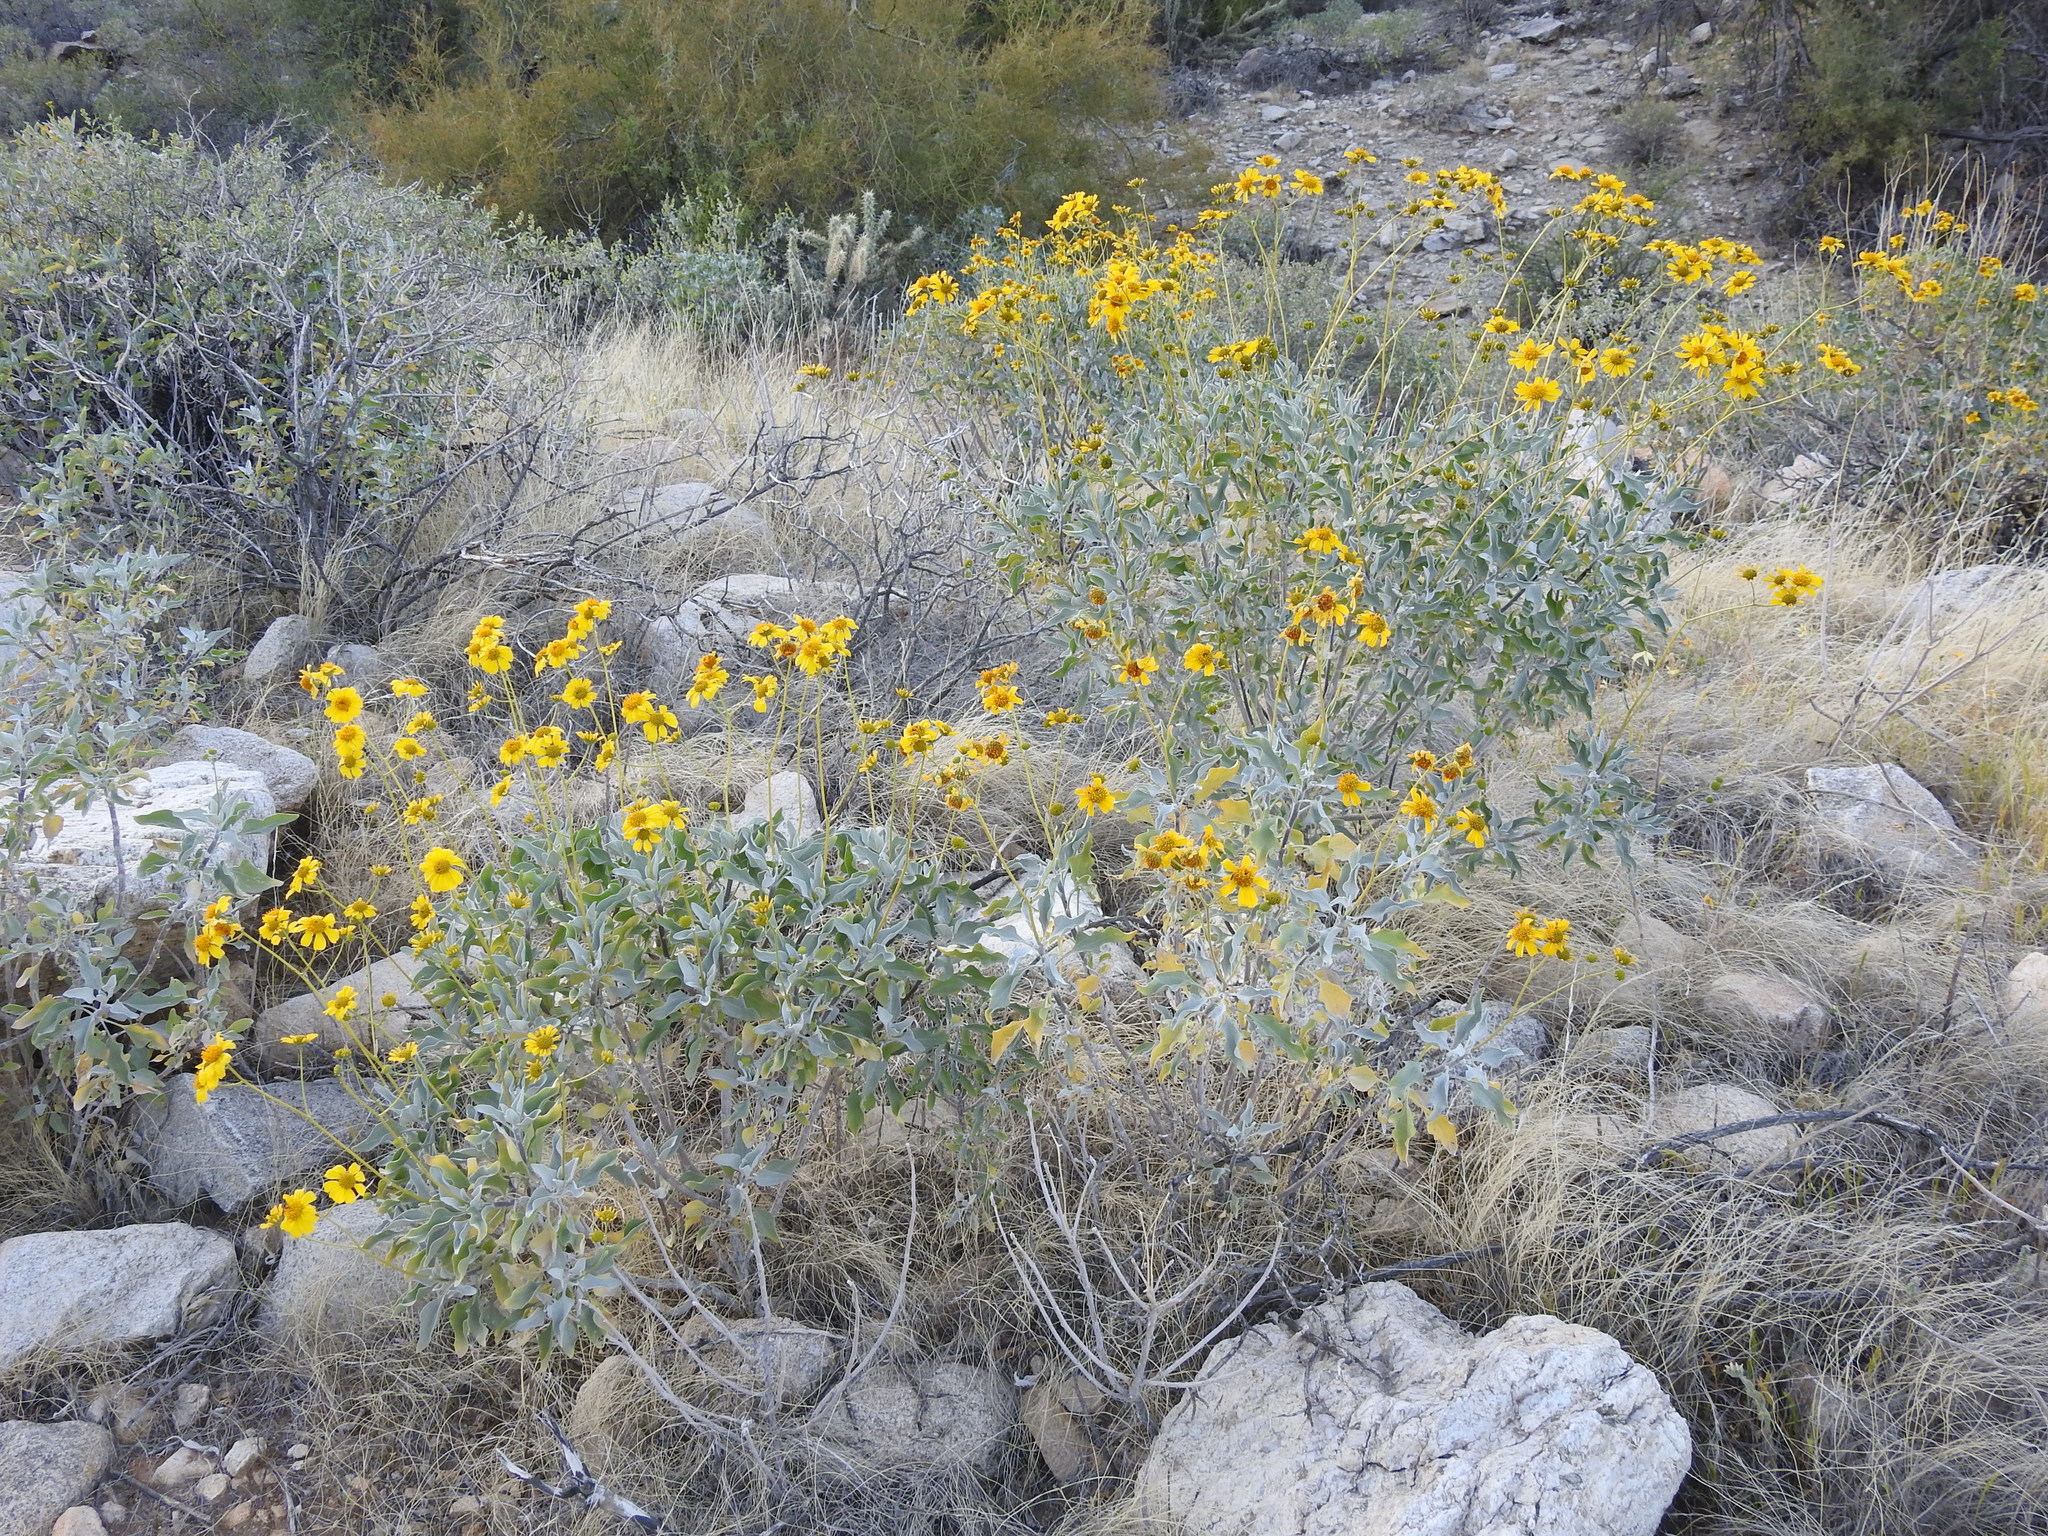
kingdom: Plantae
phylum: Tracheophyta
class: Magnoliopsida
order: Asterales
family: Asteraceae
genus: Encelia
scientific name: Encelia farinosa
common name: Brittlebush
